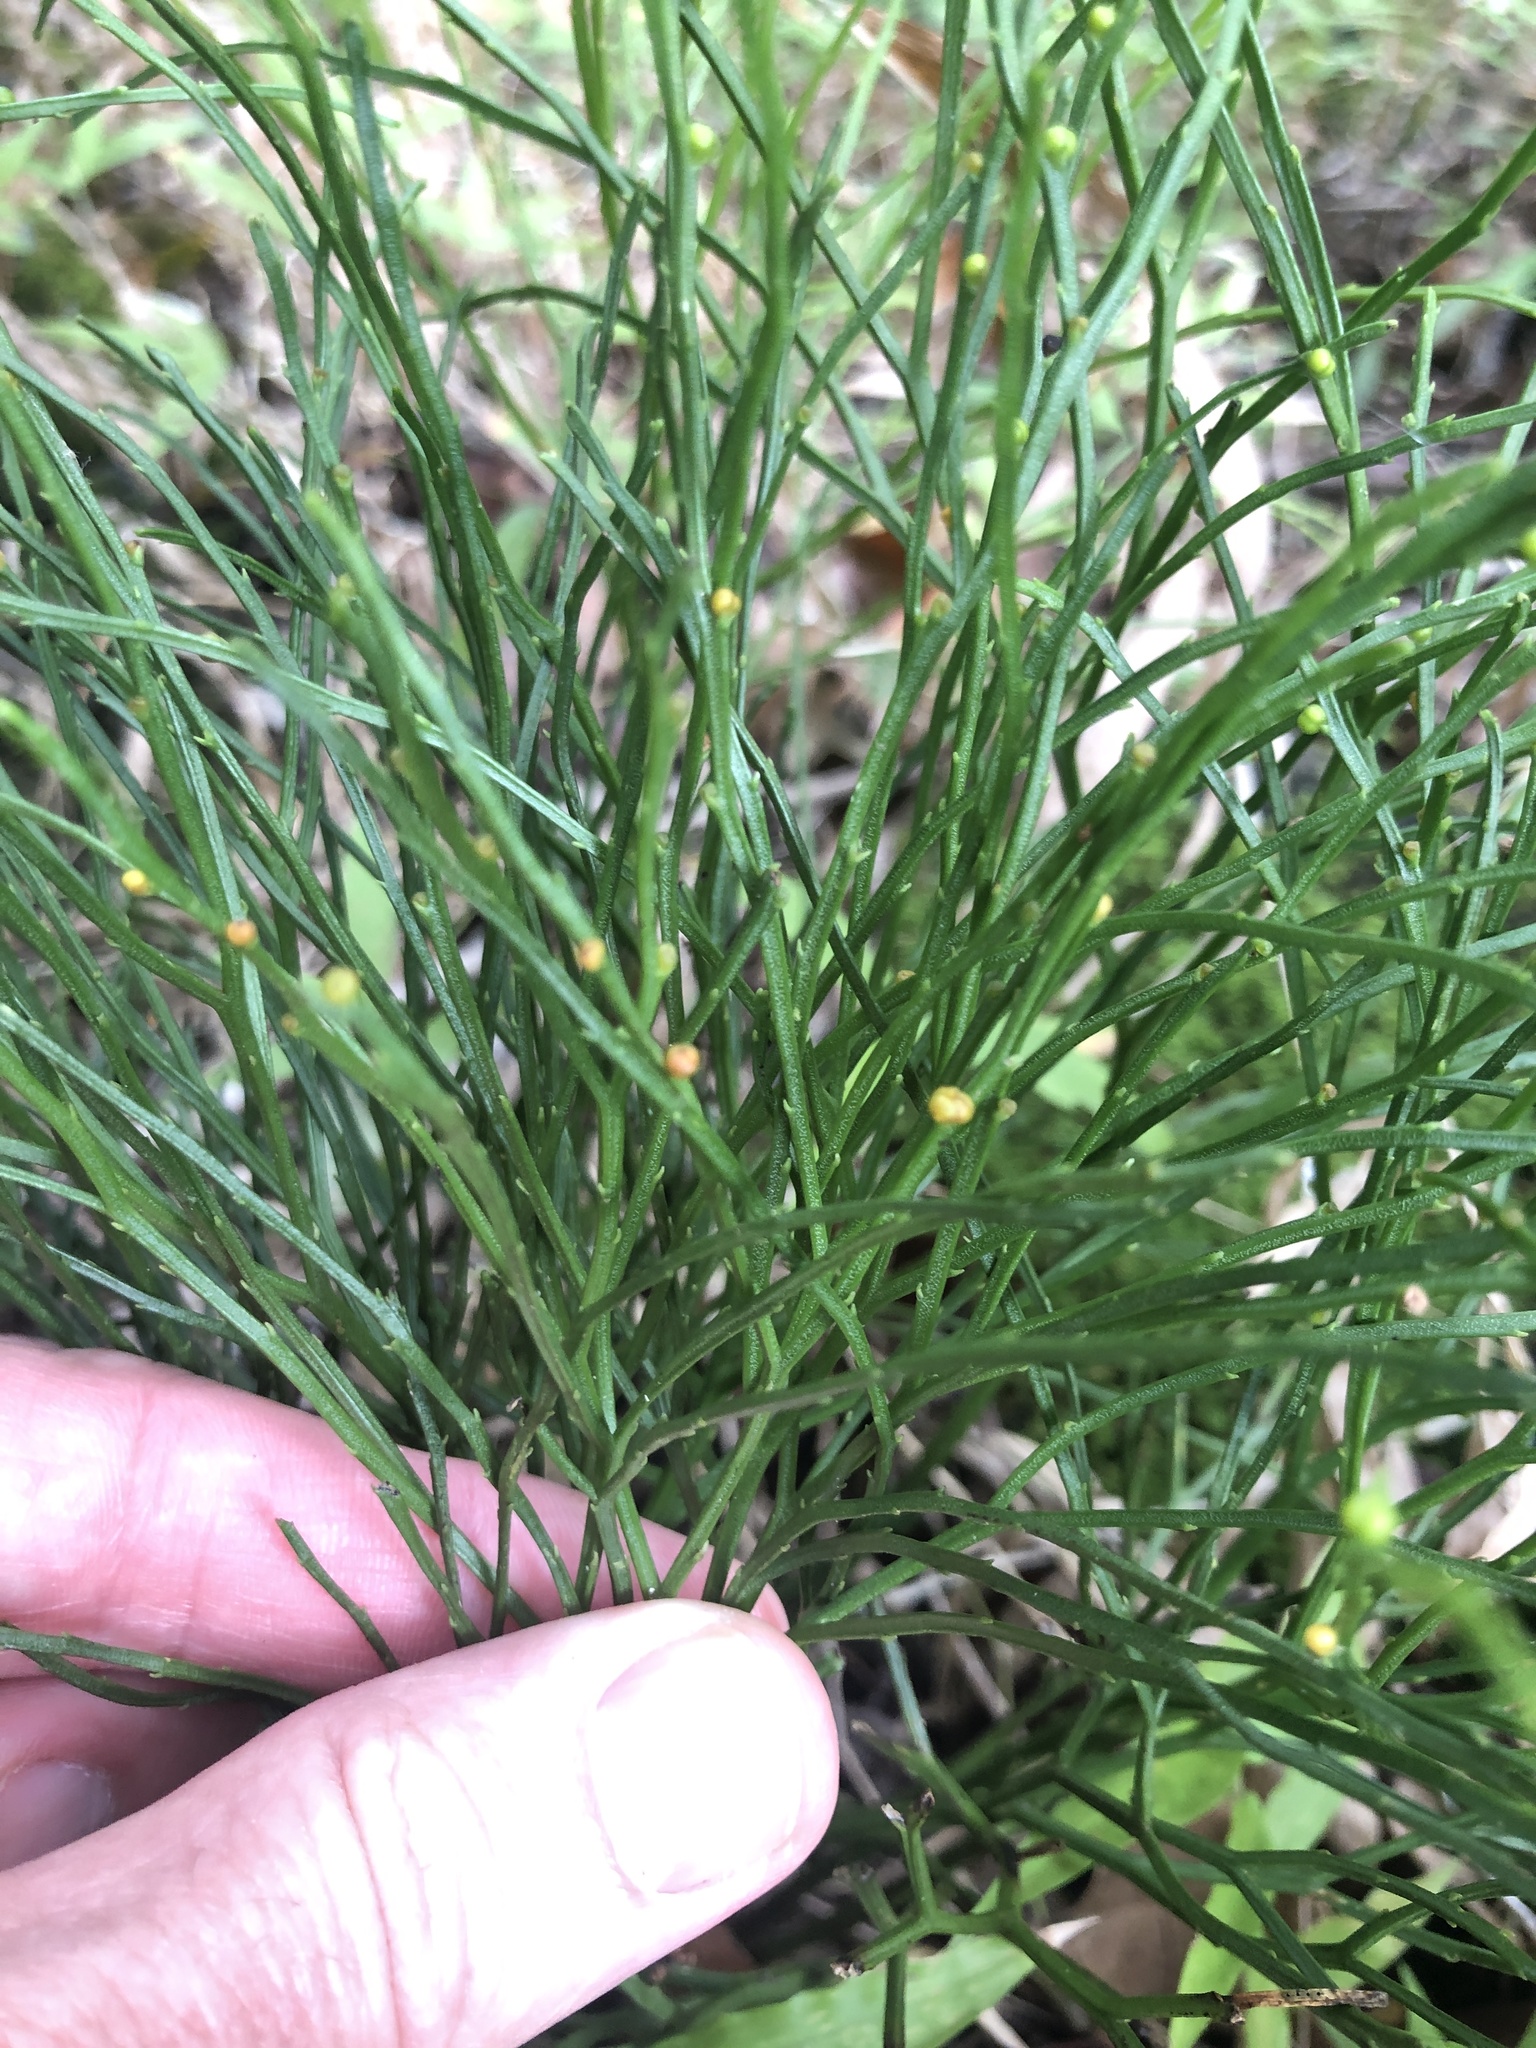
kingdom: Plantae
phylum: Tracheophyta
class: Polypodiopsida
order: Psilotales
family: Psilotaceae
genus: Psilotum
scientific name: Psilotum nudum
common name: Skeleton fork fern
